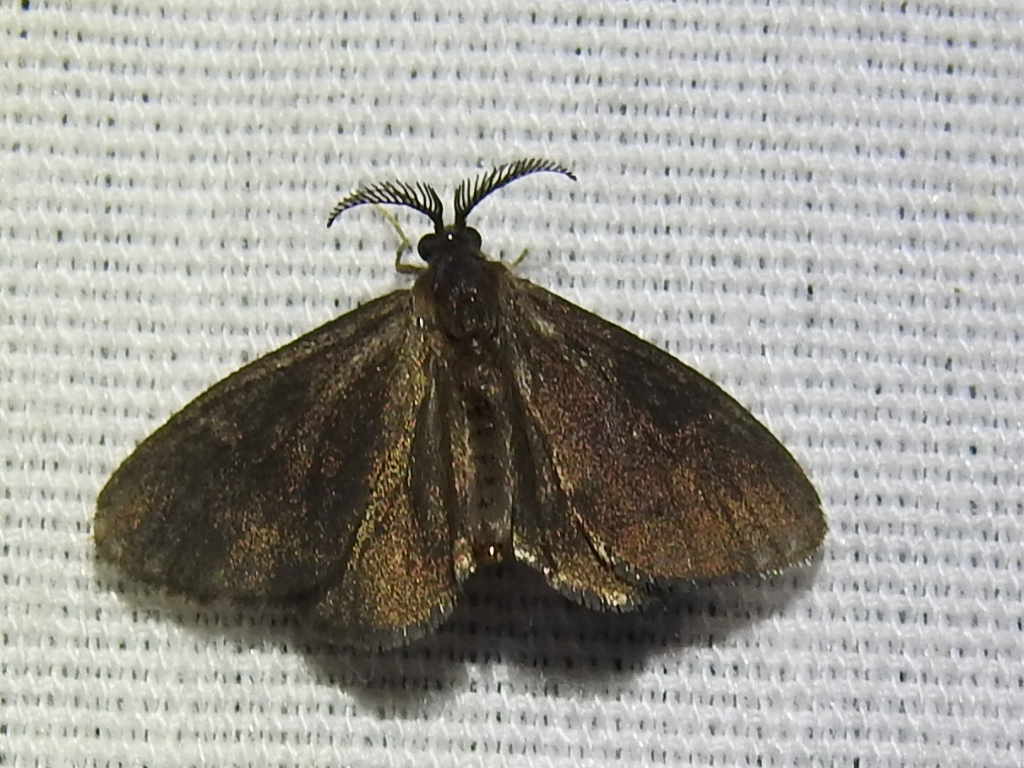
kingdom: Animalia
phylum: Arthropoda
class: Insecta
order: Lepidoptera
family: Psychidae
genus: Cryptothelea
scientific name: Cryptothelea gloverii
